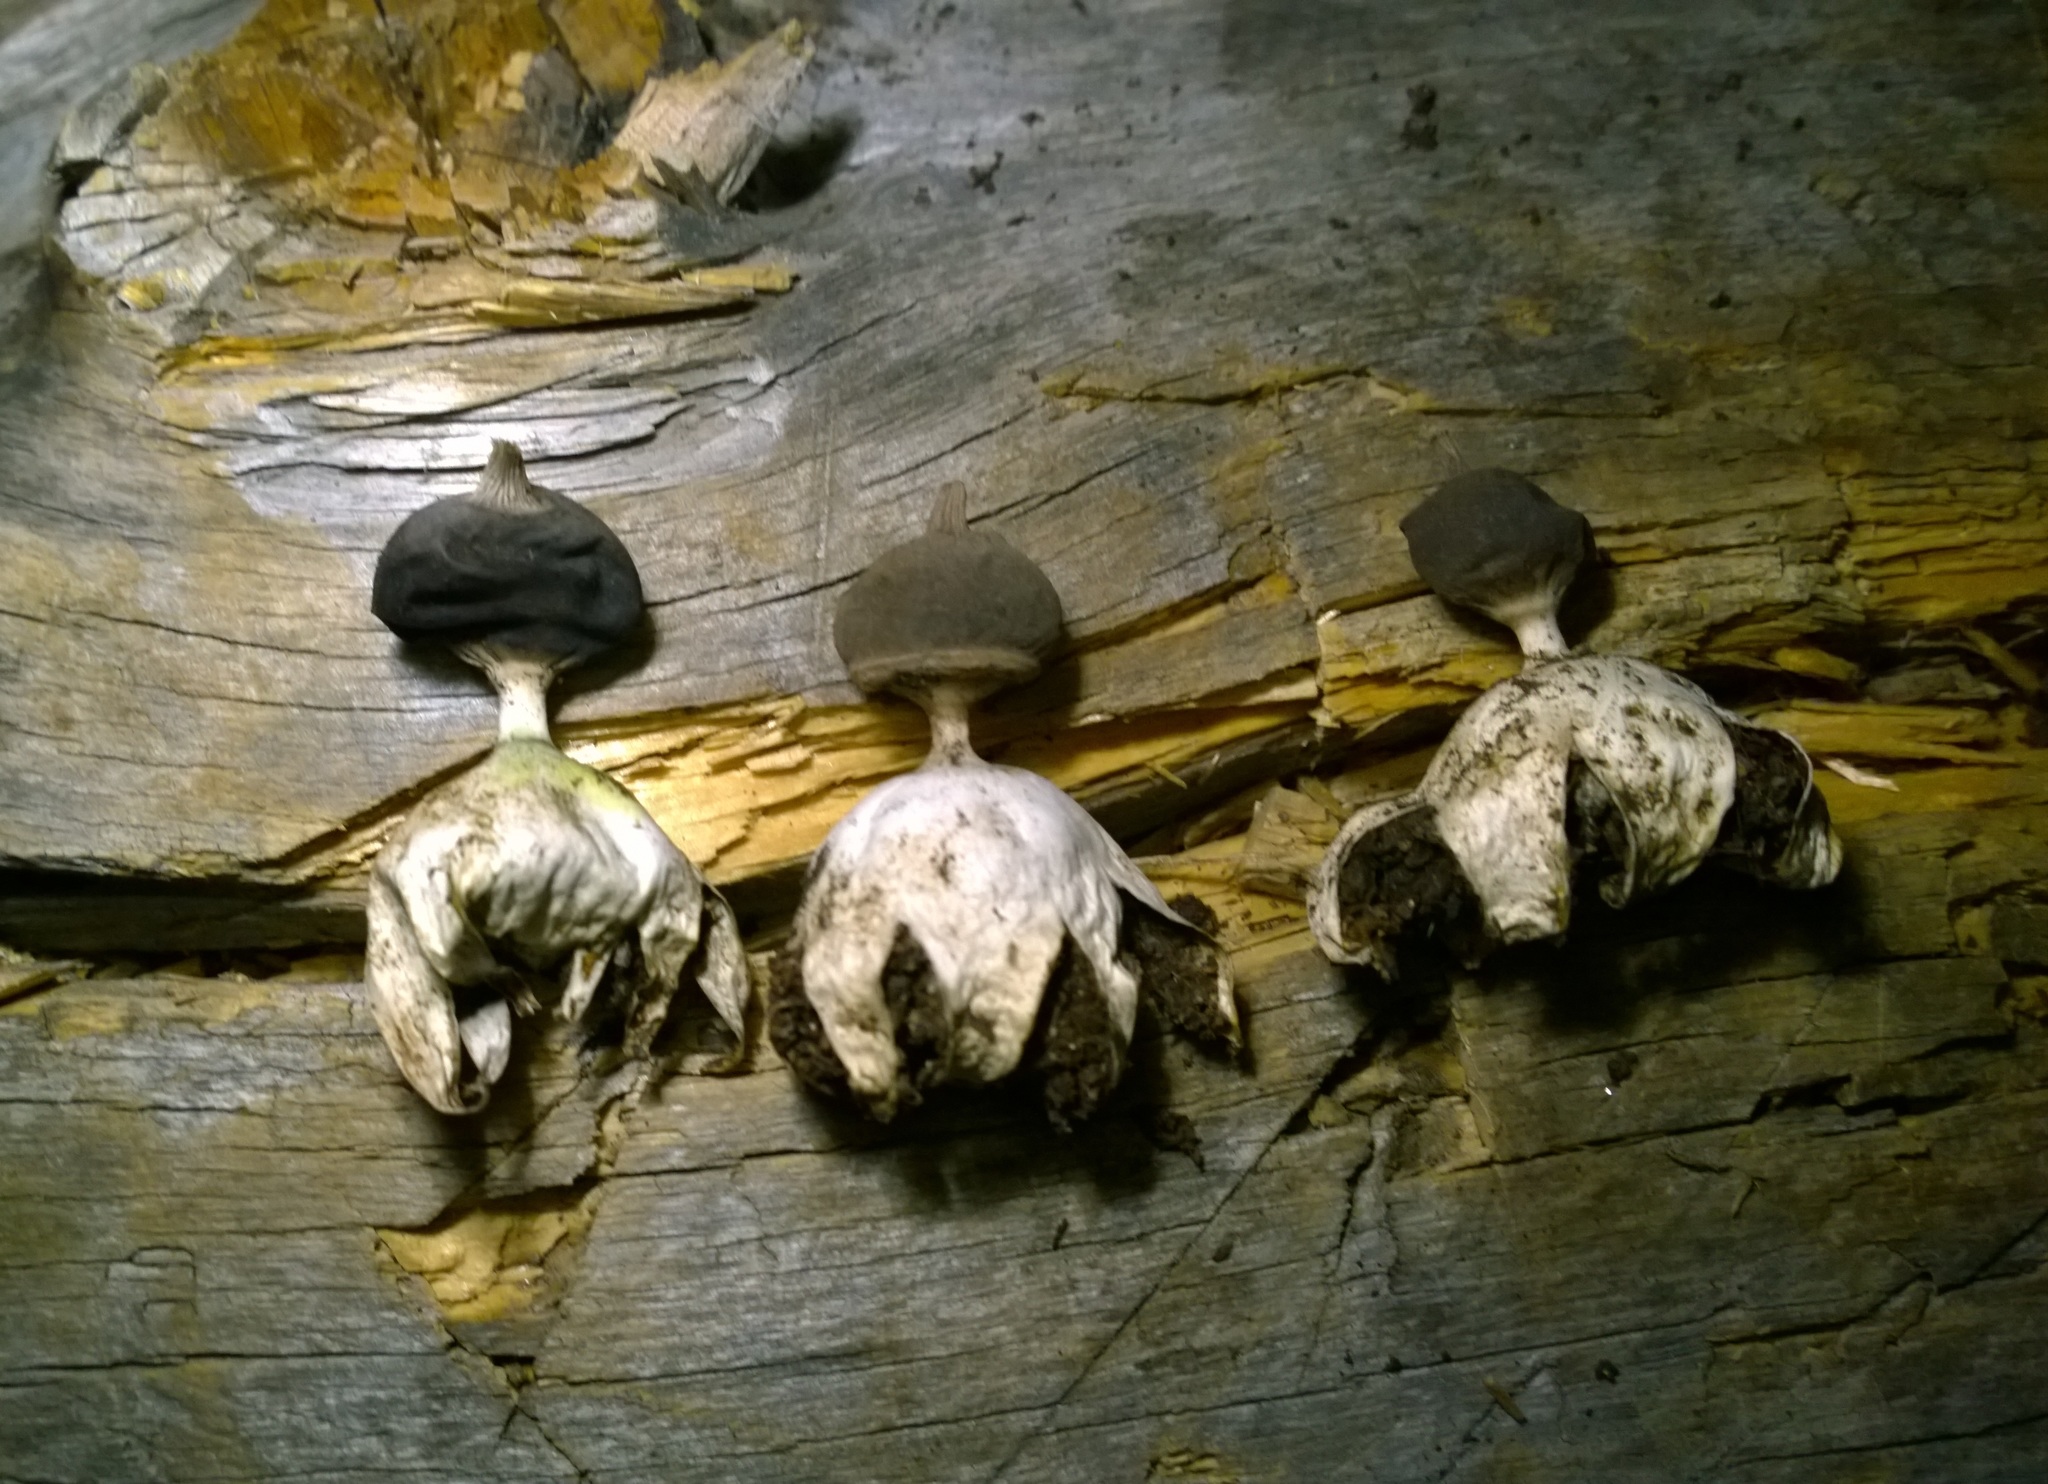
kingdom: Fungi
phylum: Basidiomycota
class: Agaricomycetes
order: Geastrales
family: Geastraceae
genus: Geastrum
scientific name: Geastrum pectinatum
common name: Beaked earthstar
